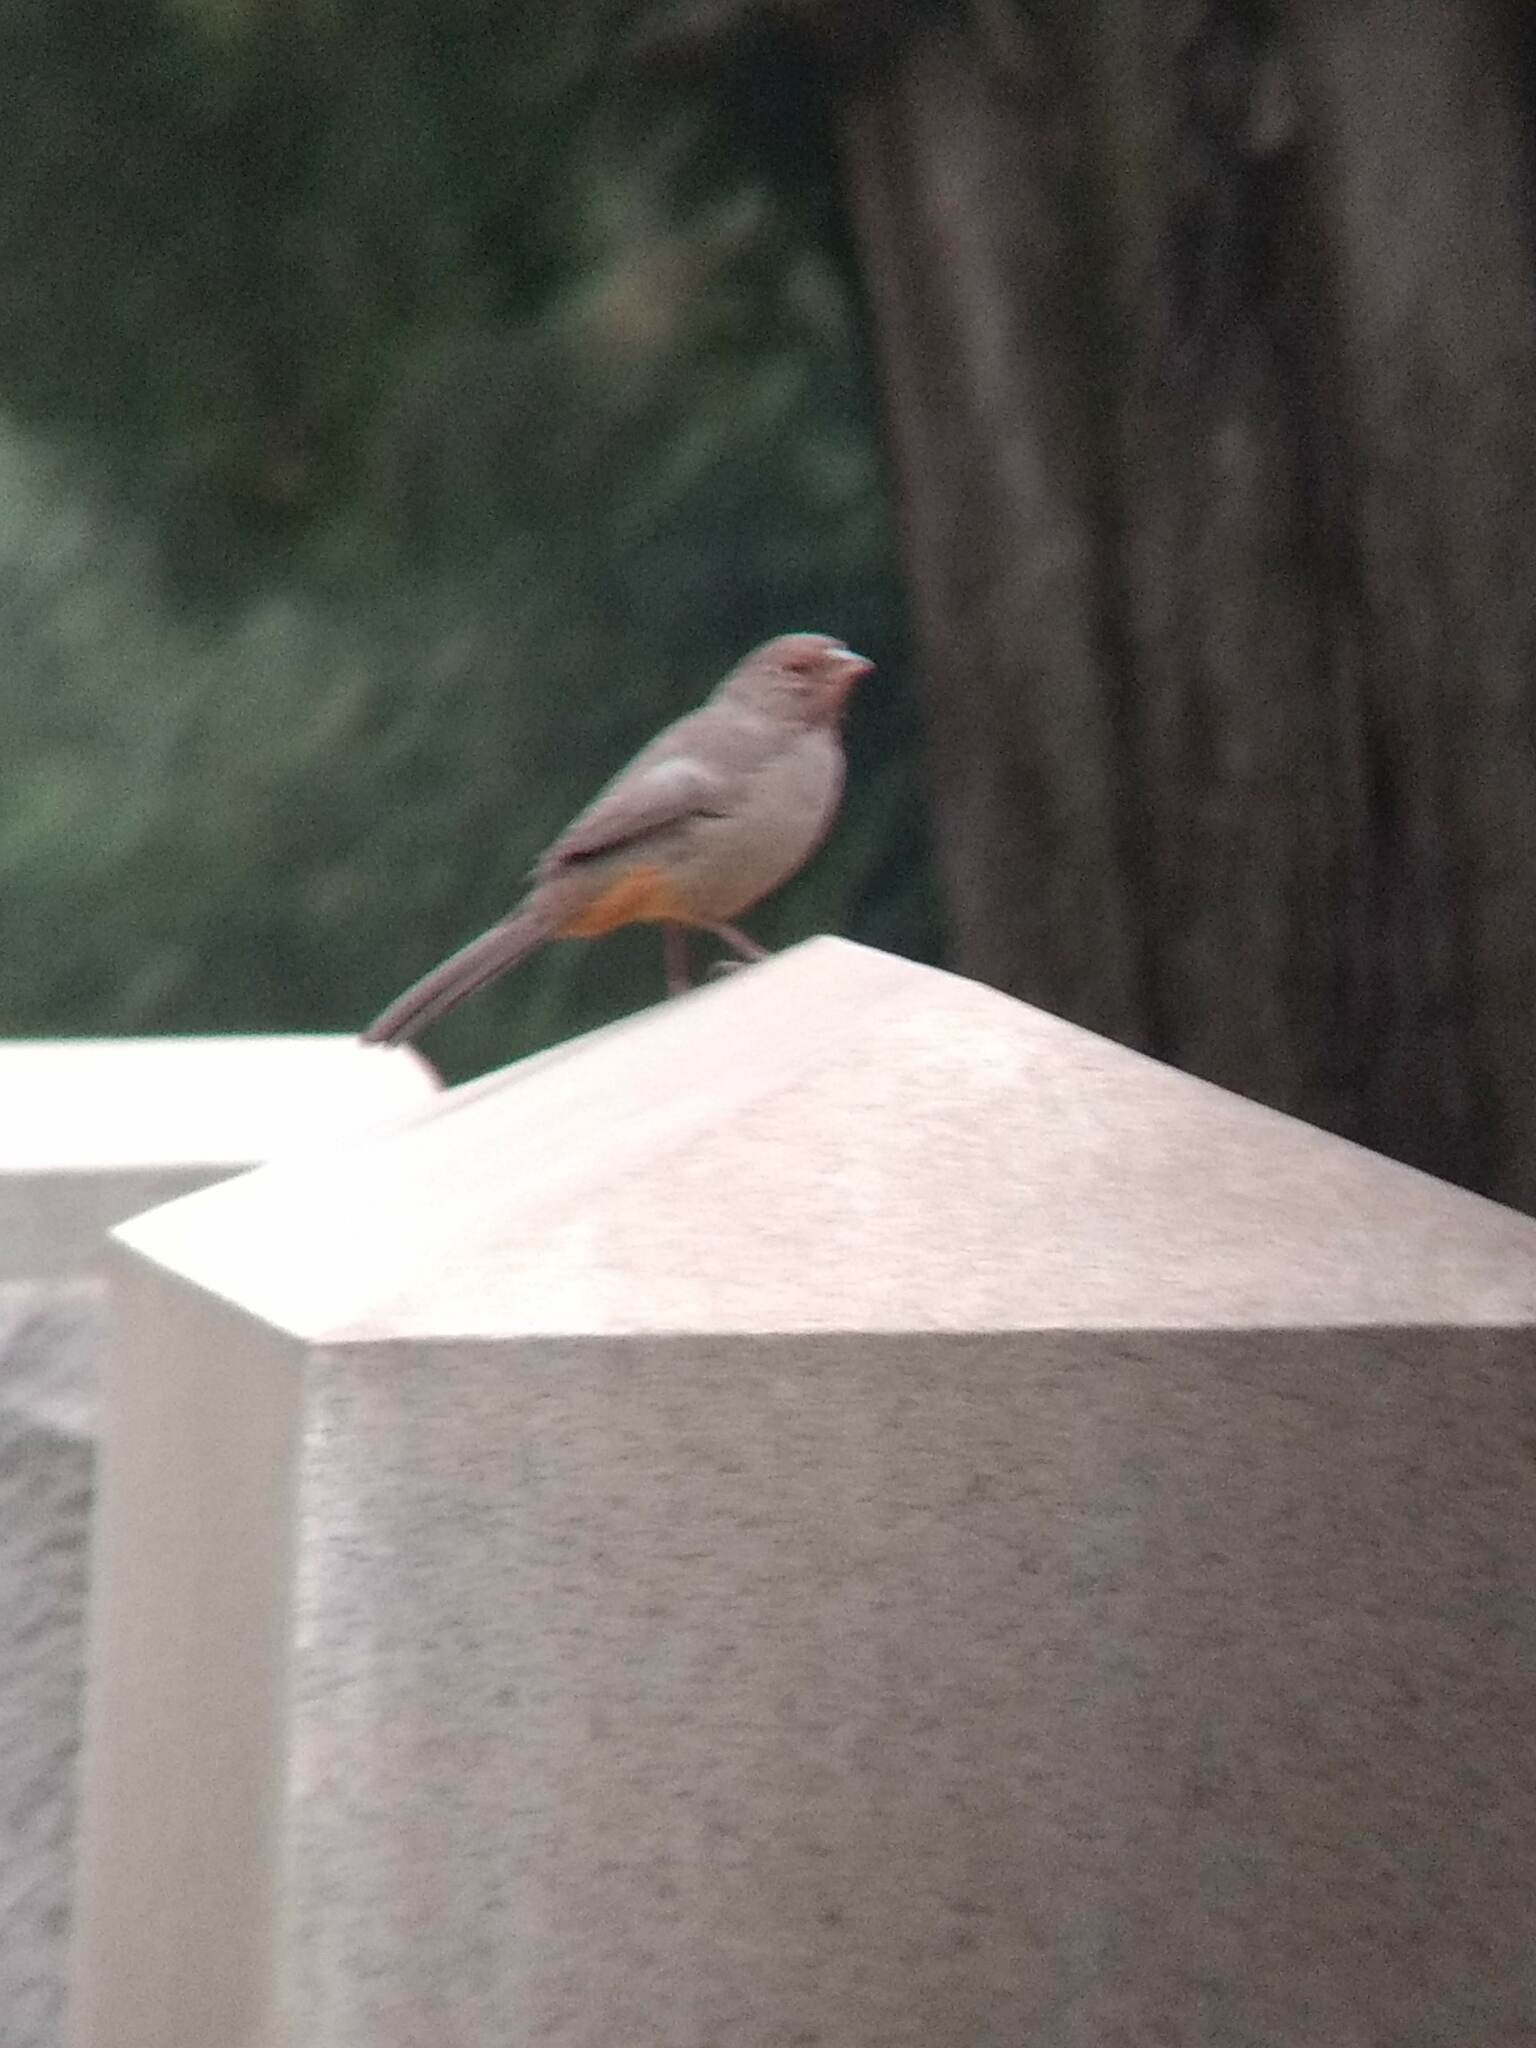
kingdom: Animalia
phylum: Chordata
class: Aves
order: Passeriformes
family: Passerellidae
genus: Melozone
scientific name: Melozone crissalis
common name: California towhee
